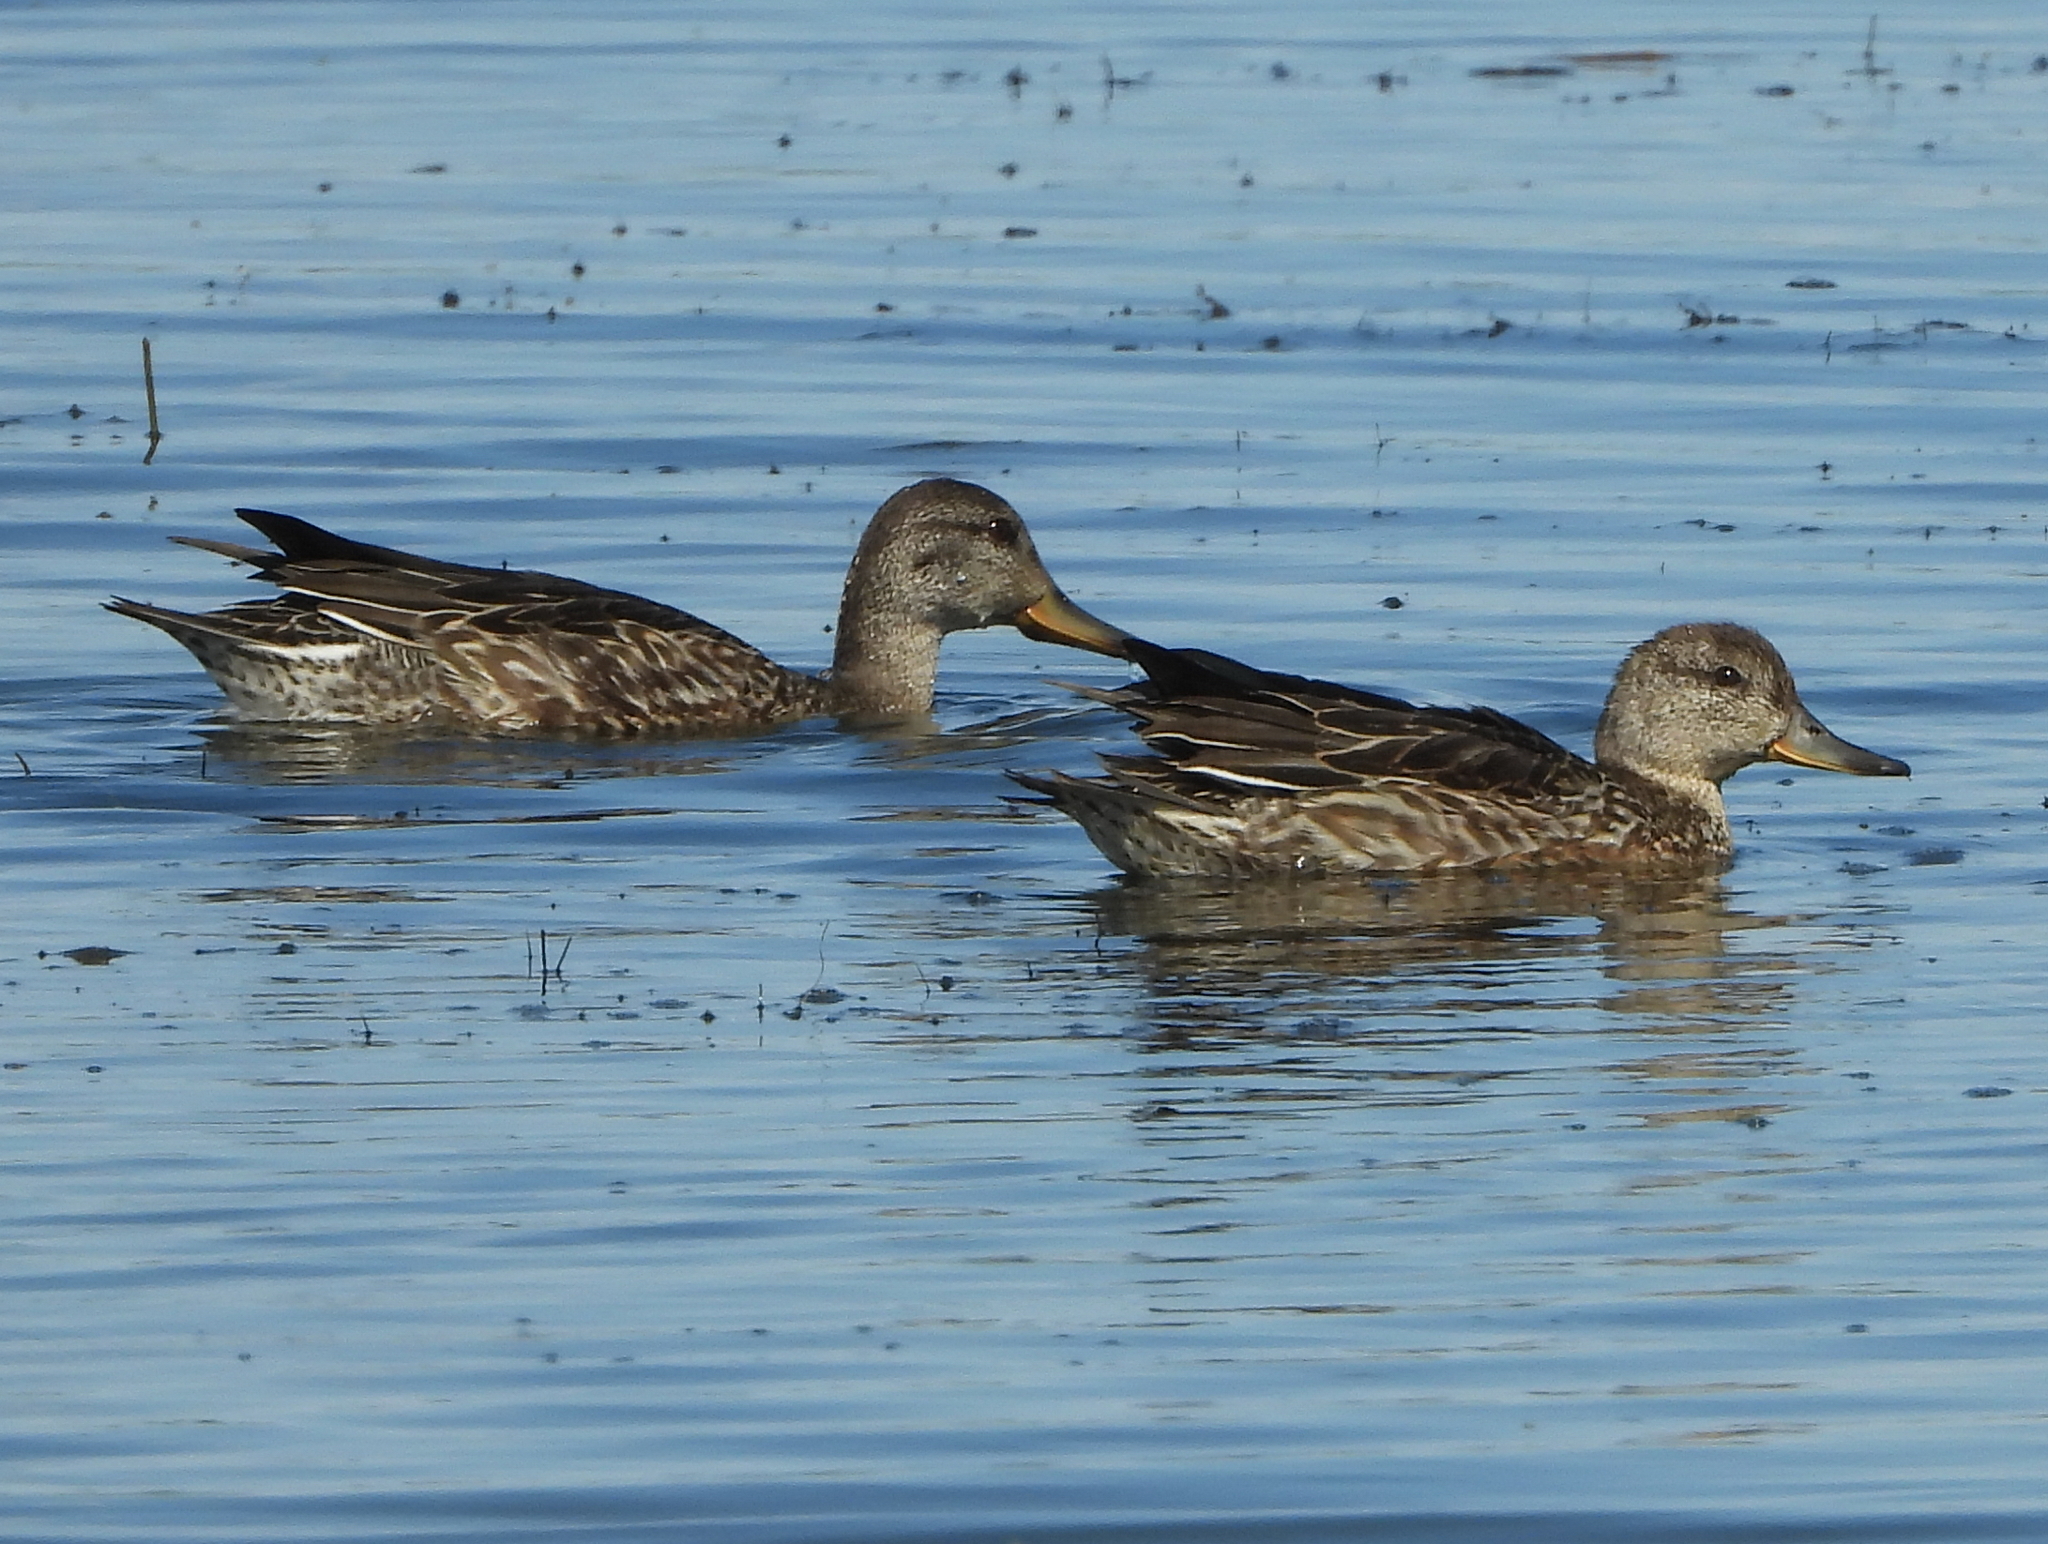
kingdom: Animalia
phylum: Chordata
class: Aves
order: Anseriformes
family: Anatidae
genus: Anas
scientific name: Anas crecca
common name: Eurasian teal
